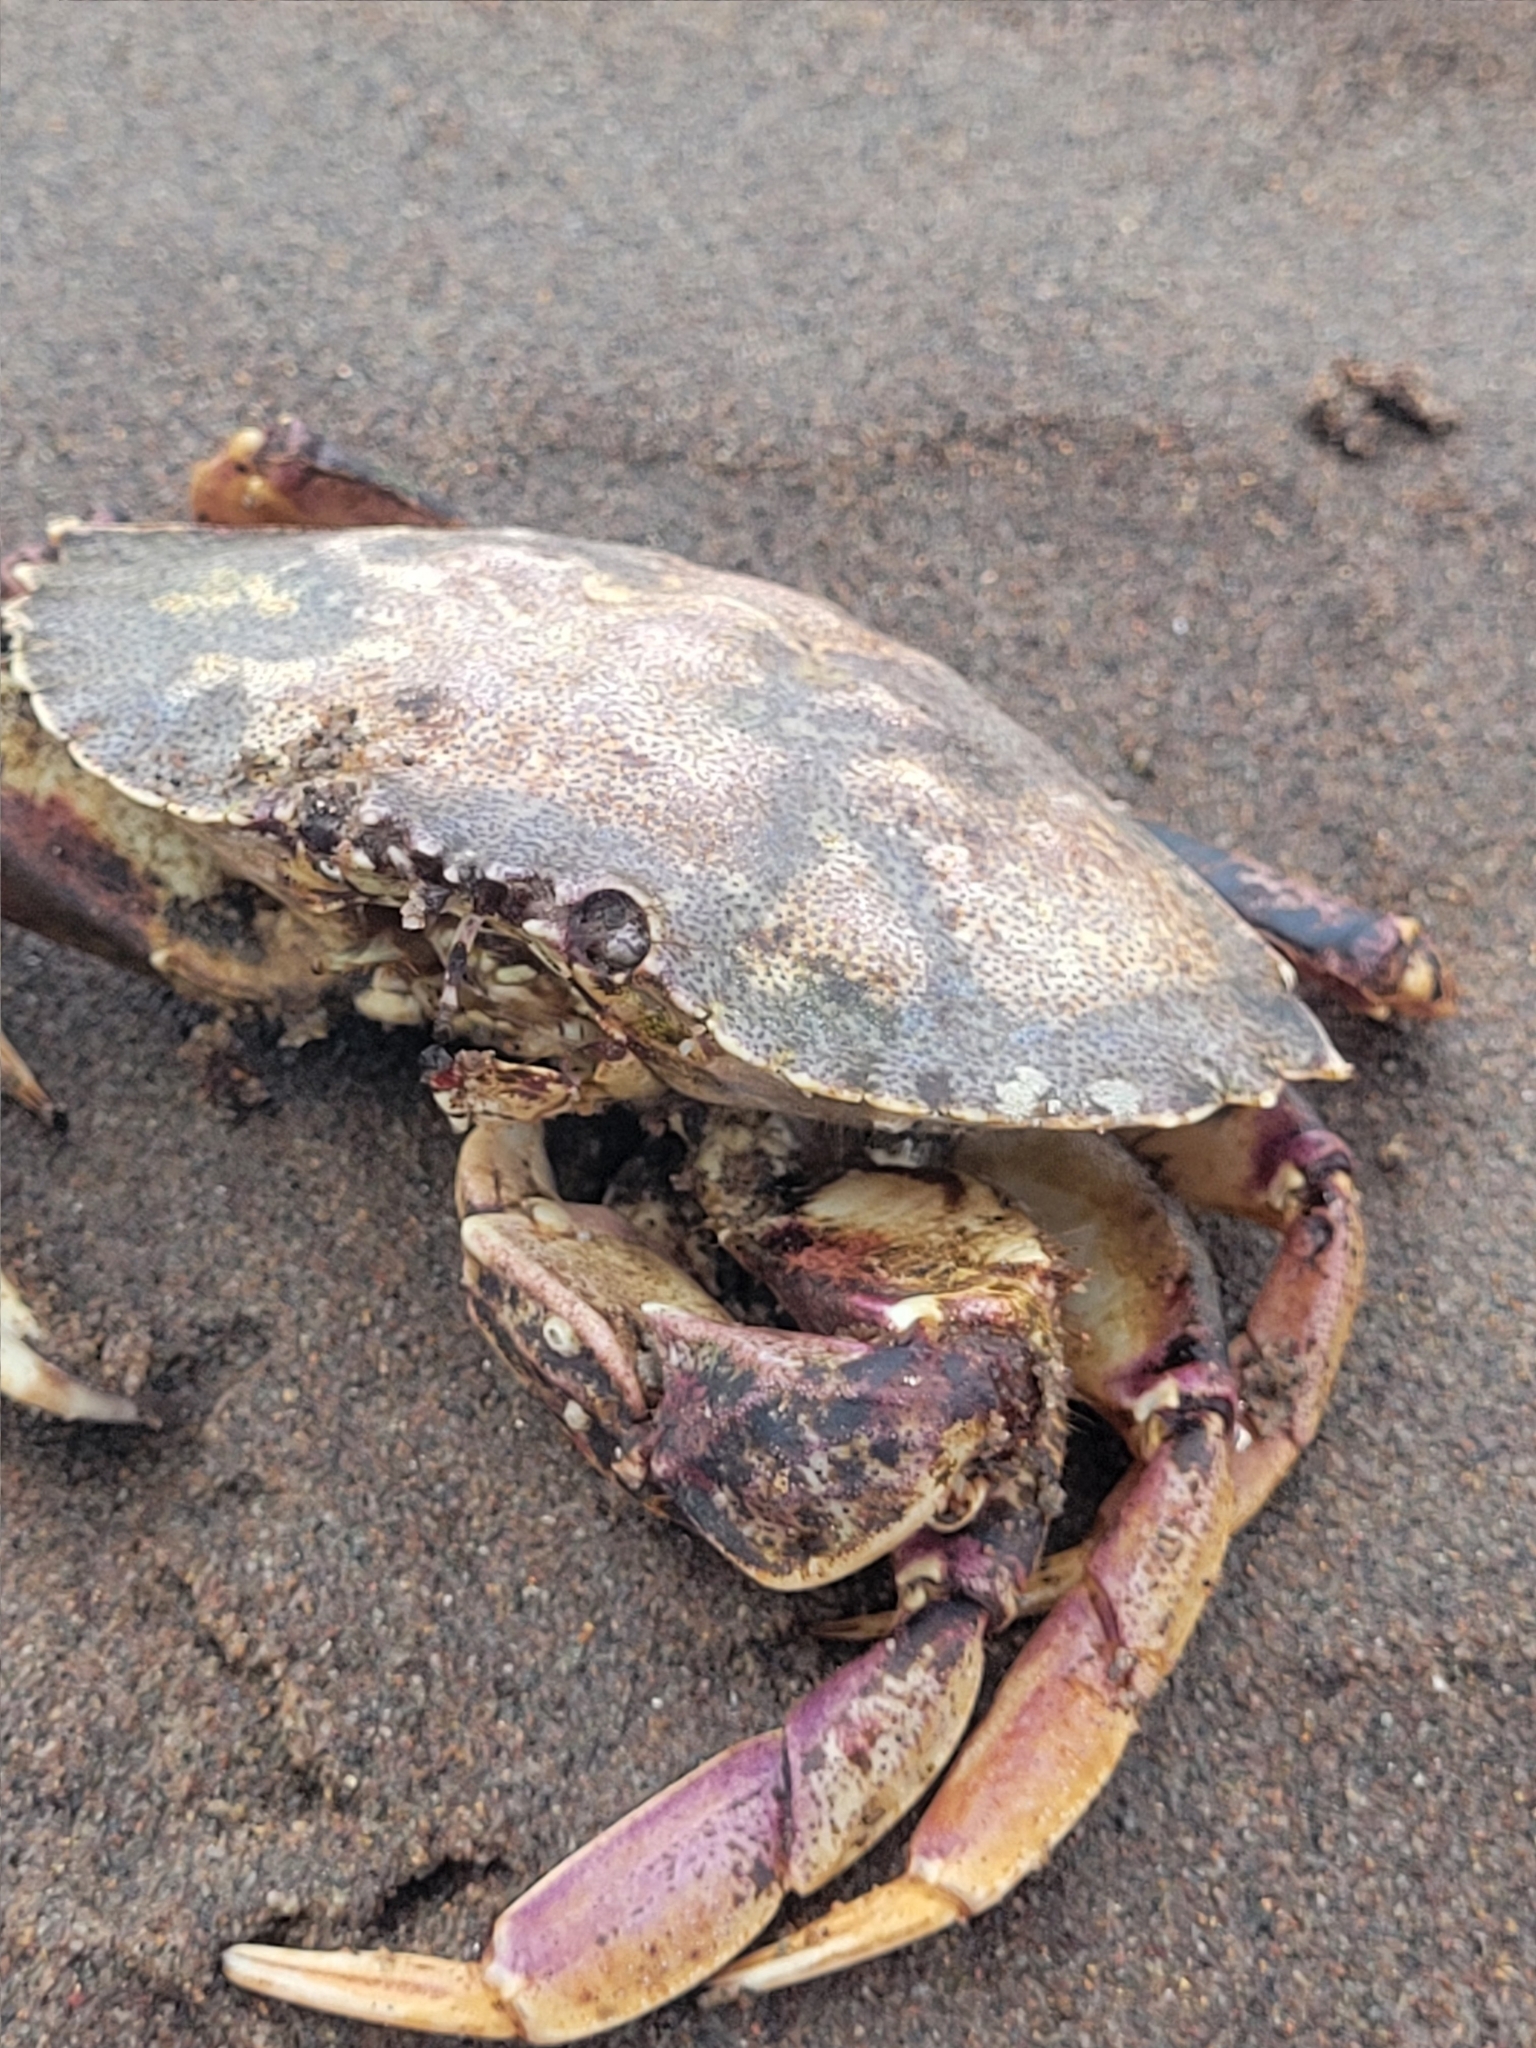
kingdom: Animalia
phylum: Arthropoda
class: Malacostraca
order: Decapoda
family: Cancridae
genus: Cancer
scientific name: Cancer irroratus
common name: Atlantic rock crab
